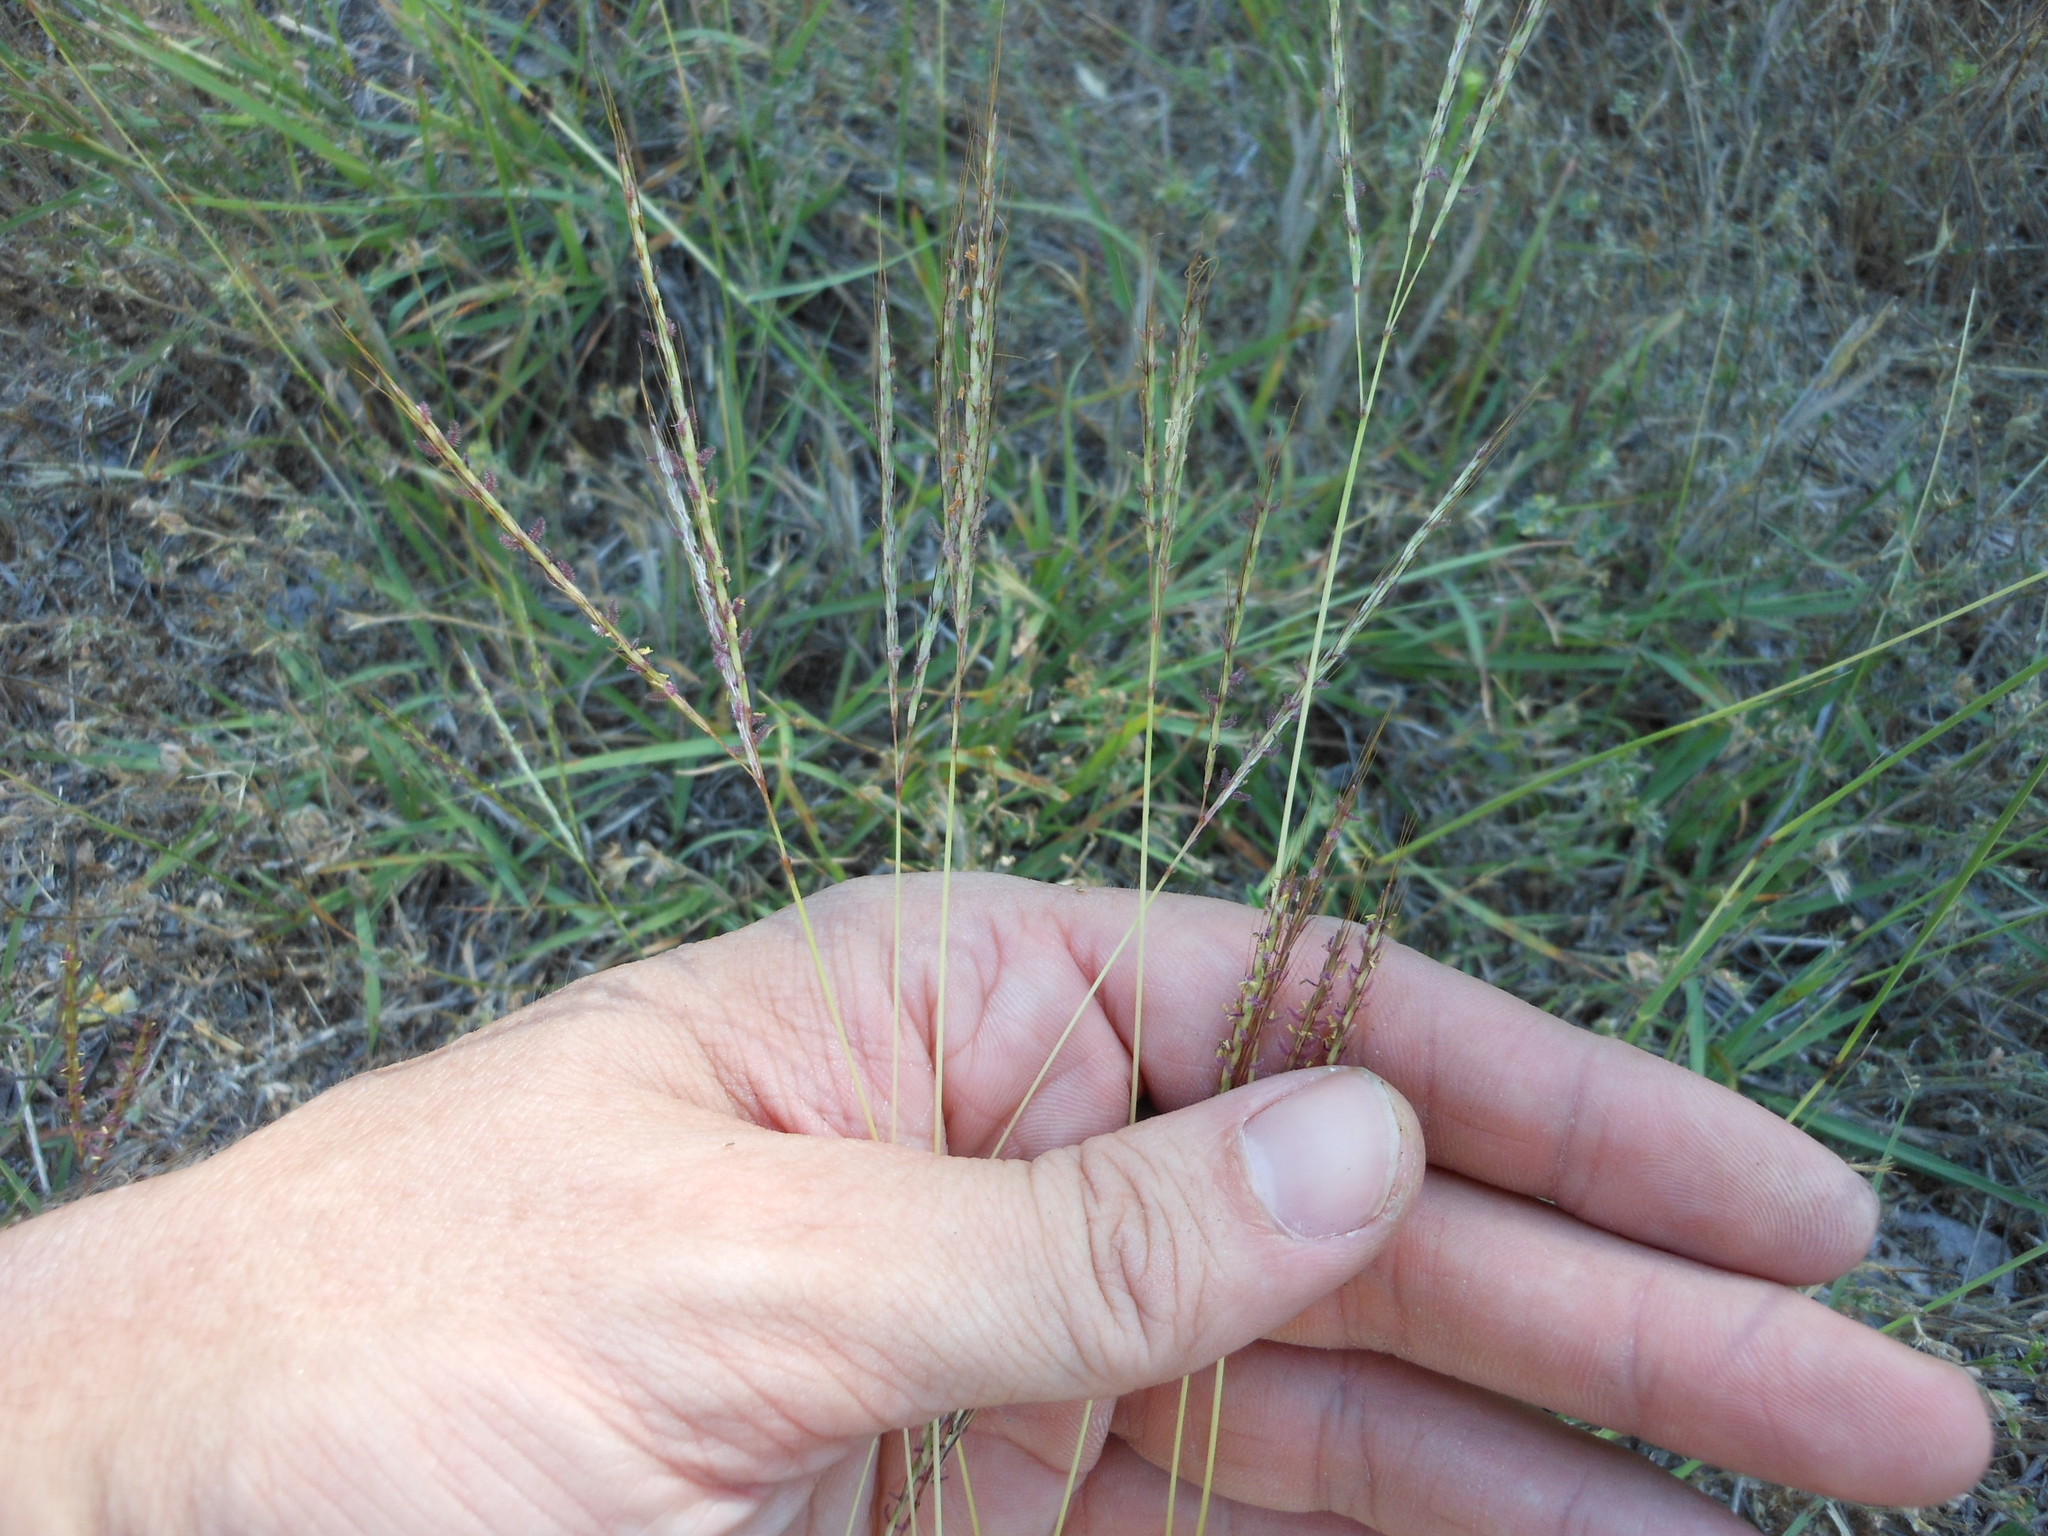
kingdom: Plantae
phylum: Tracheophyta
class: Liliopsida
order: Poales
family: Poaceae
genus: Bothriochloa
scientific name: Bothriochloa ischaemum
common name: Yellow bluestem
